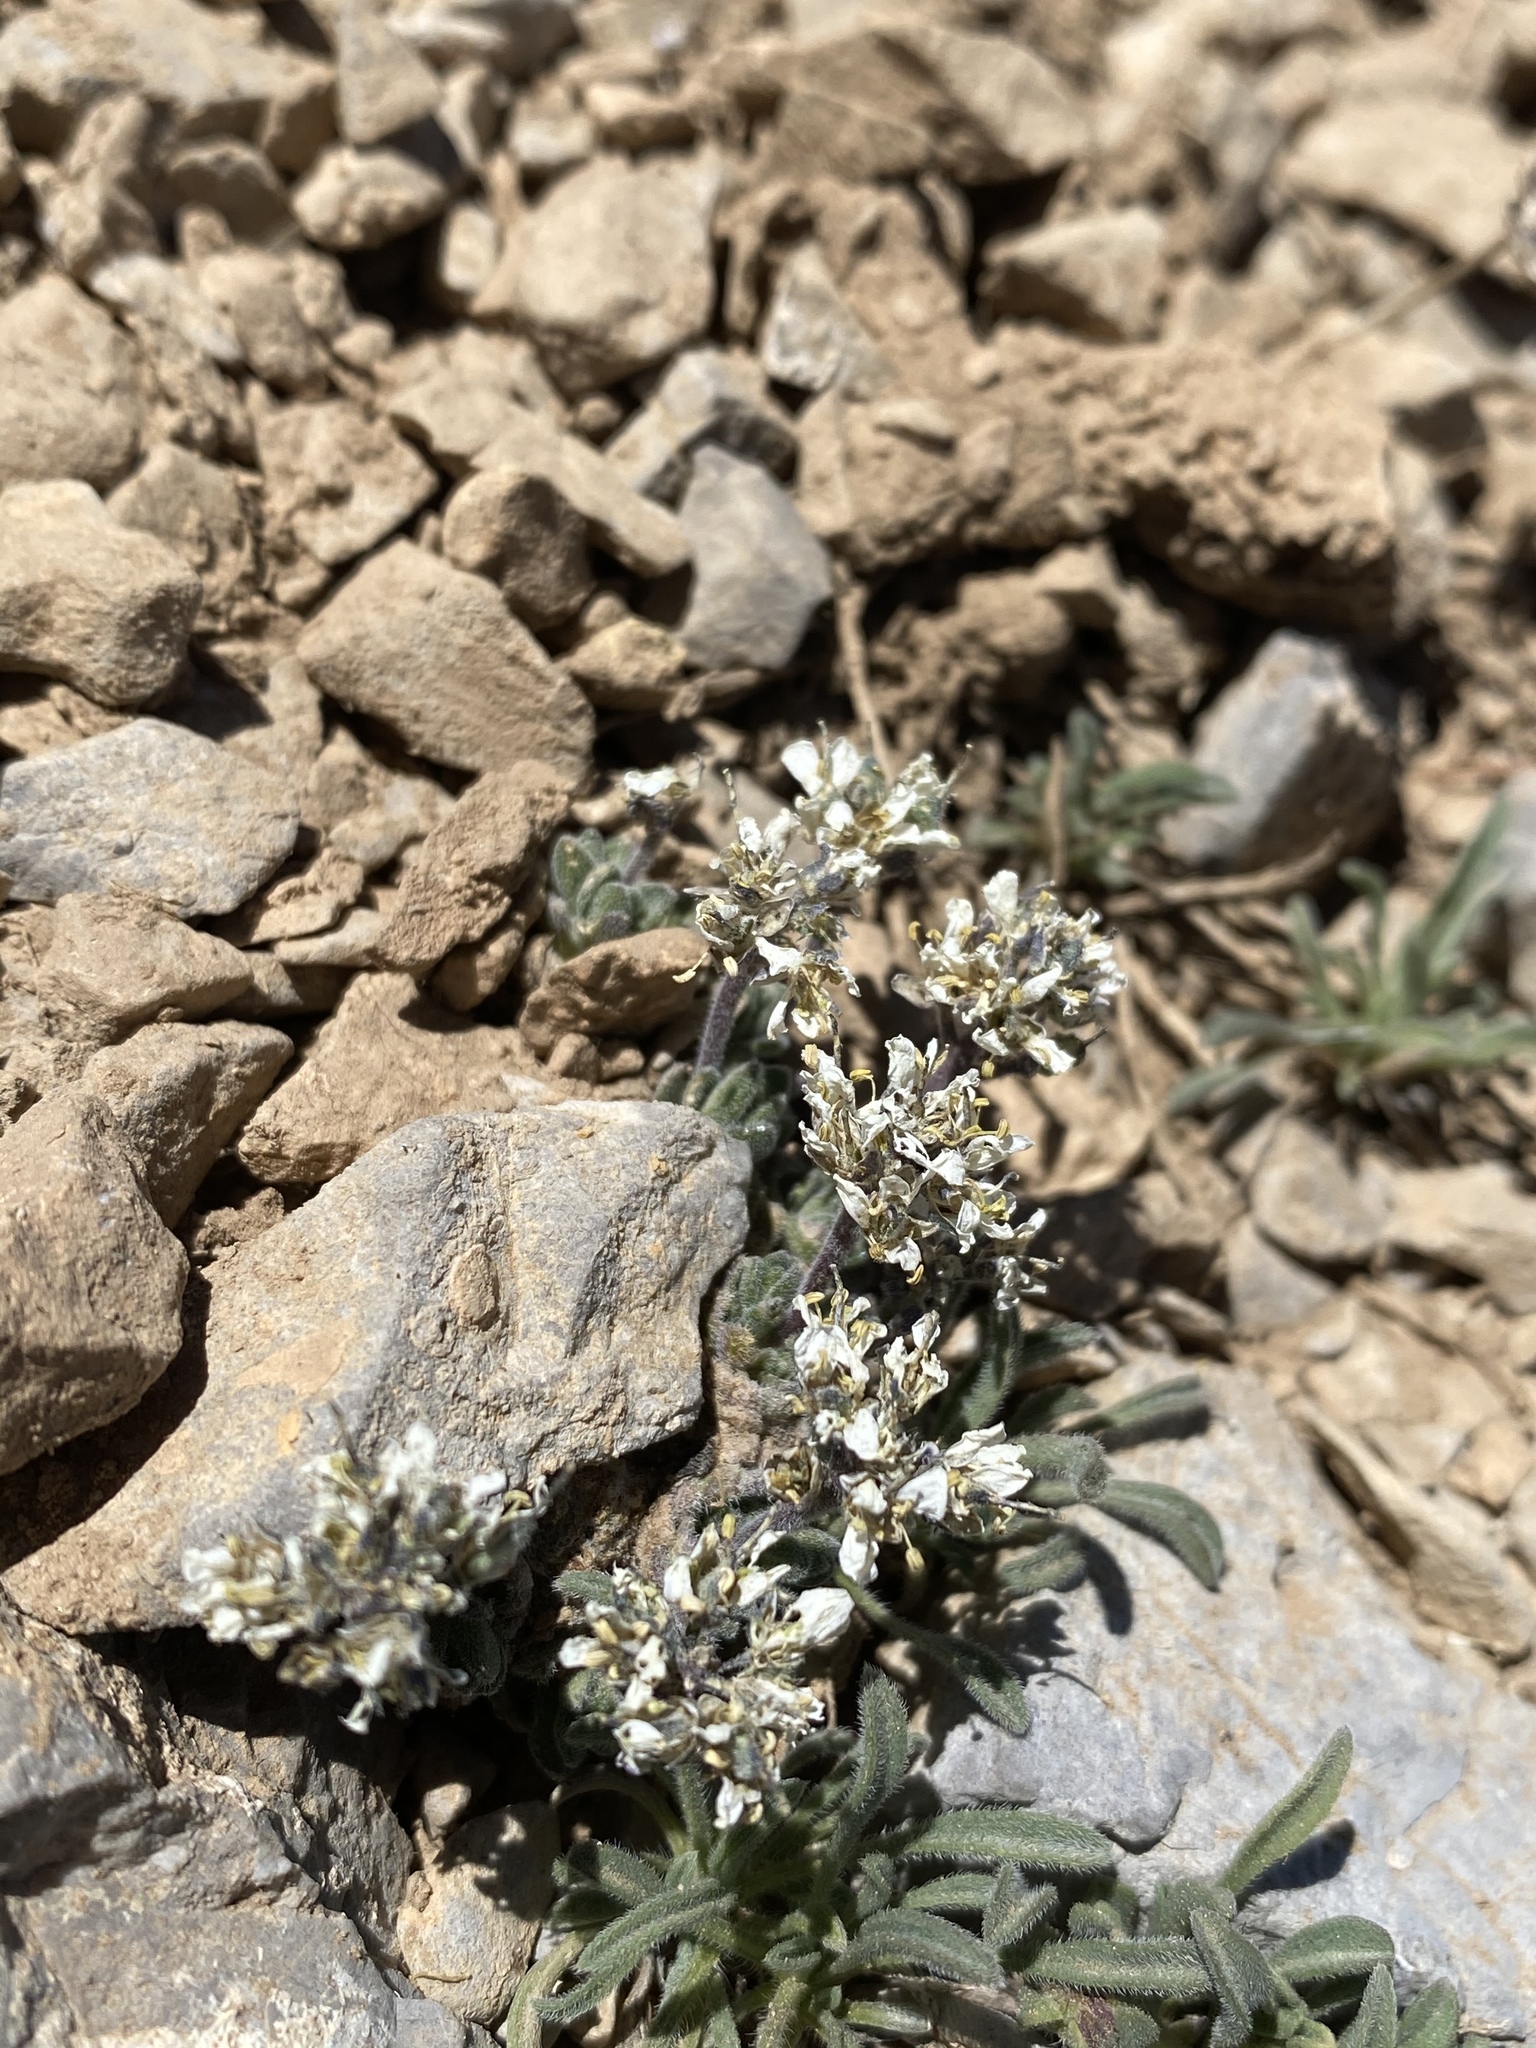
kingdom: Plantae
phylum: Tracheophyta
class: Magnoliopsida
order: Brassicales
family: Brassicaceae
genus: Draba
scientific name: Draba jaegeri
